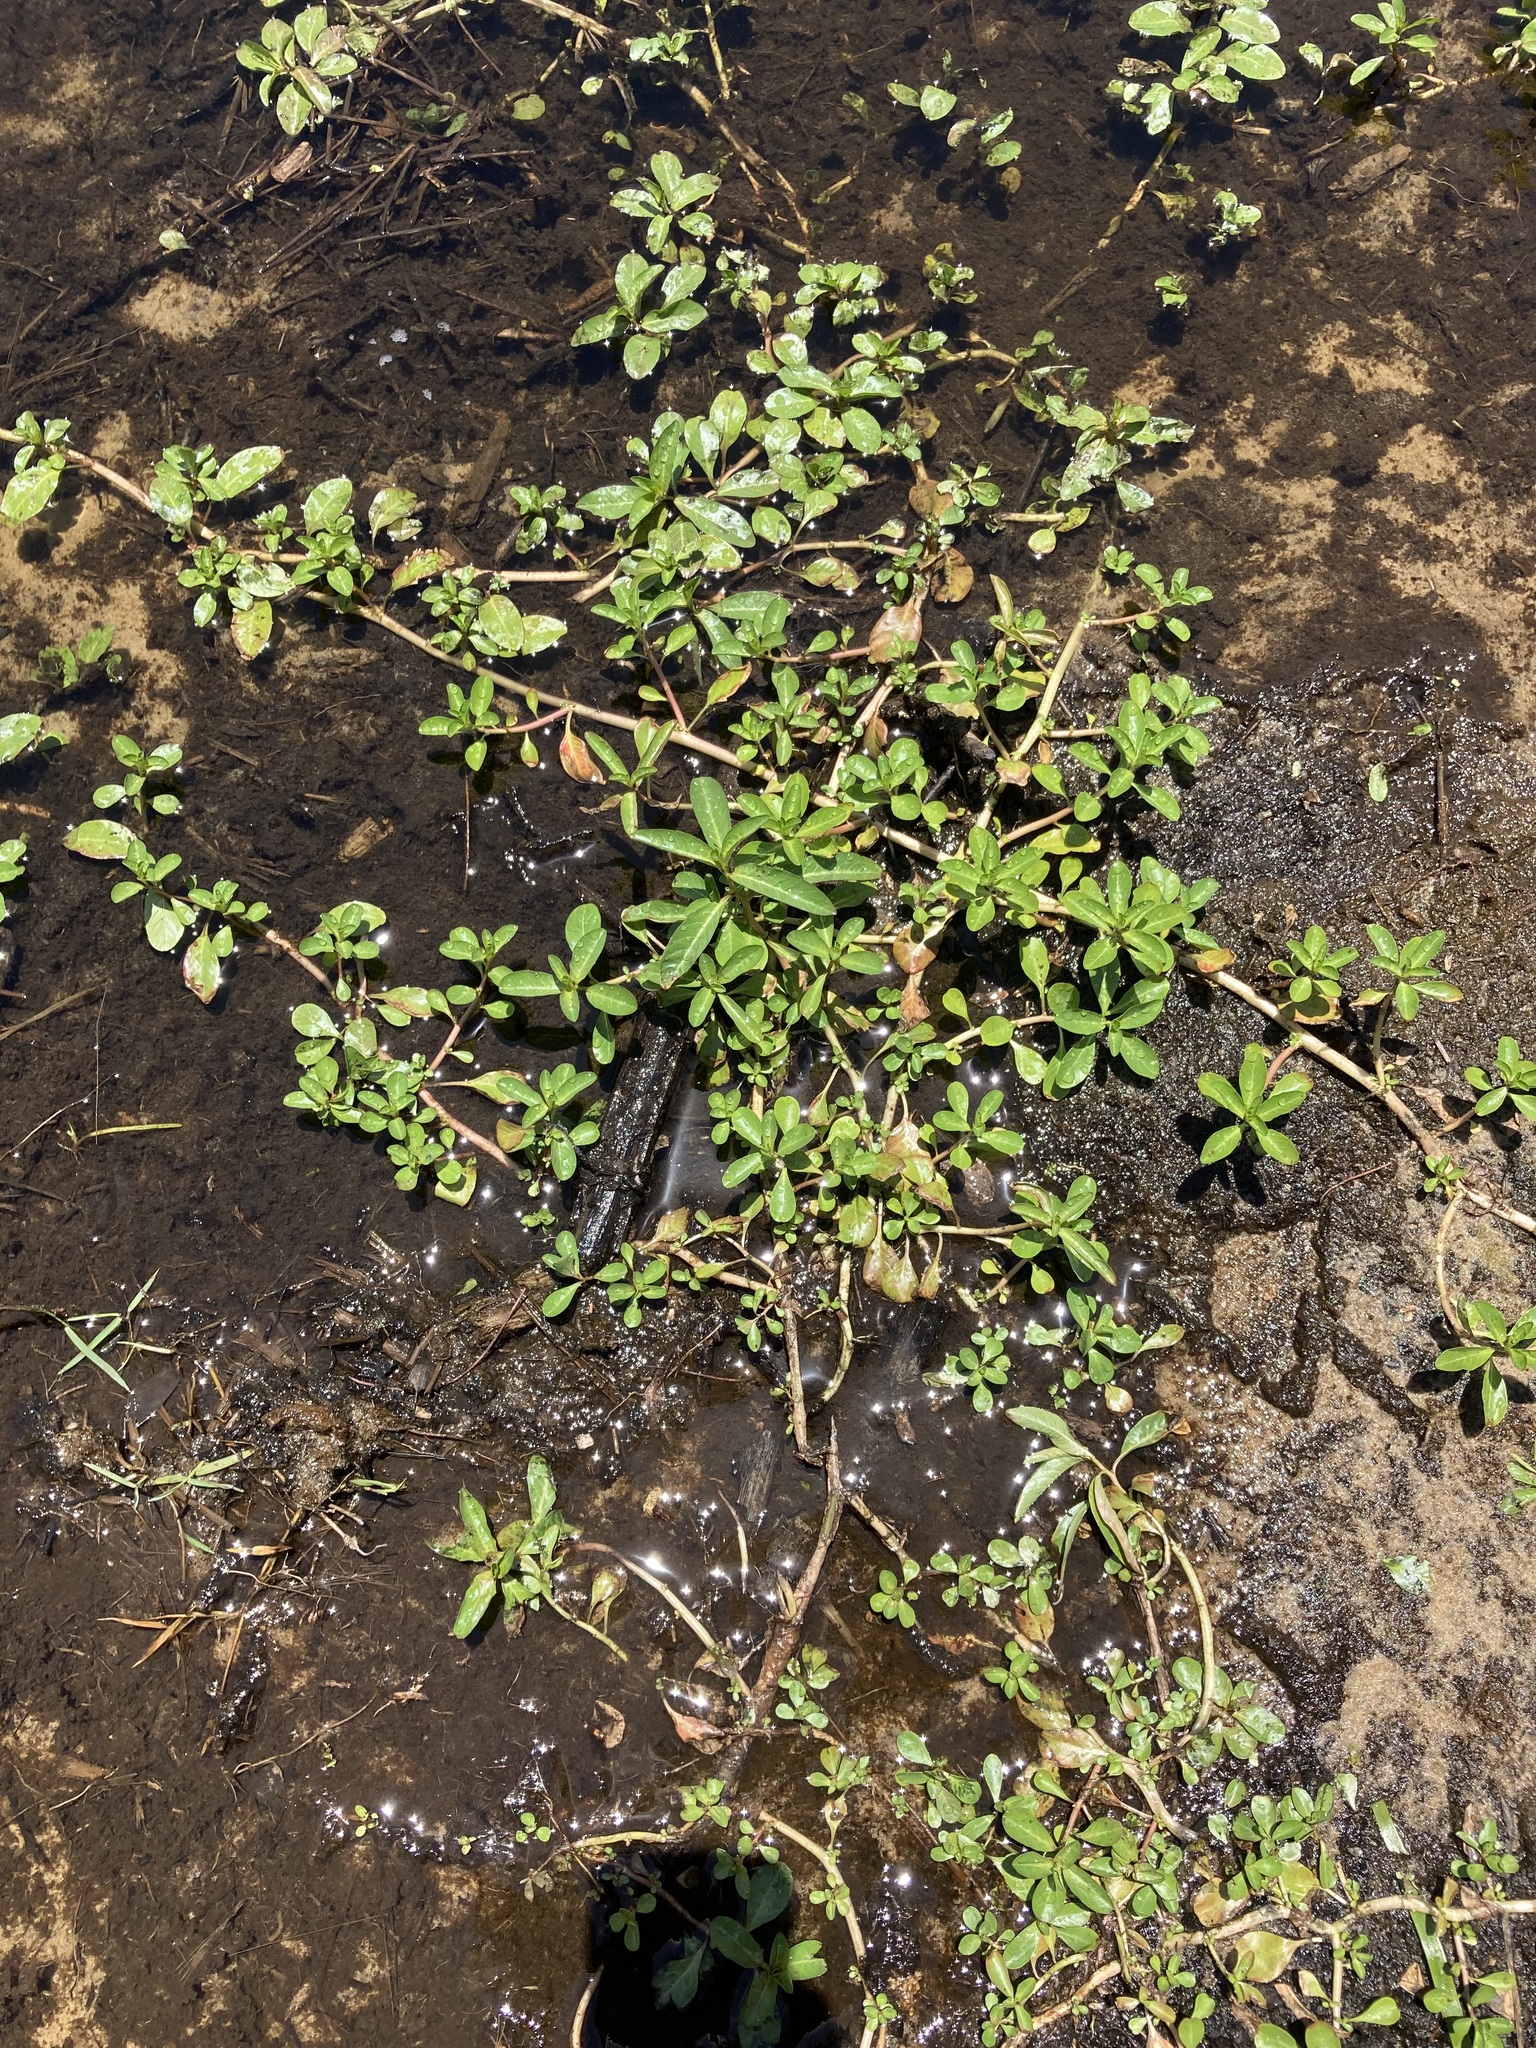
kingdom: Plantae
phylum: Tracheophyta
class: Magnoliopsida
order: Myrtales
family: Onagraceae
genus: Ludwigia
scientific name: Ludwigia peploides
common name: Floating primrose-willow
